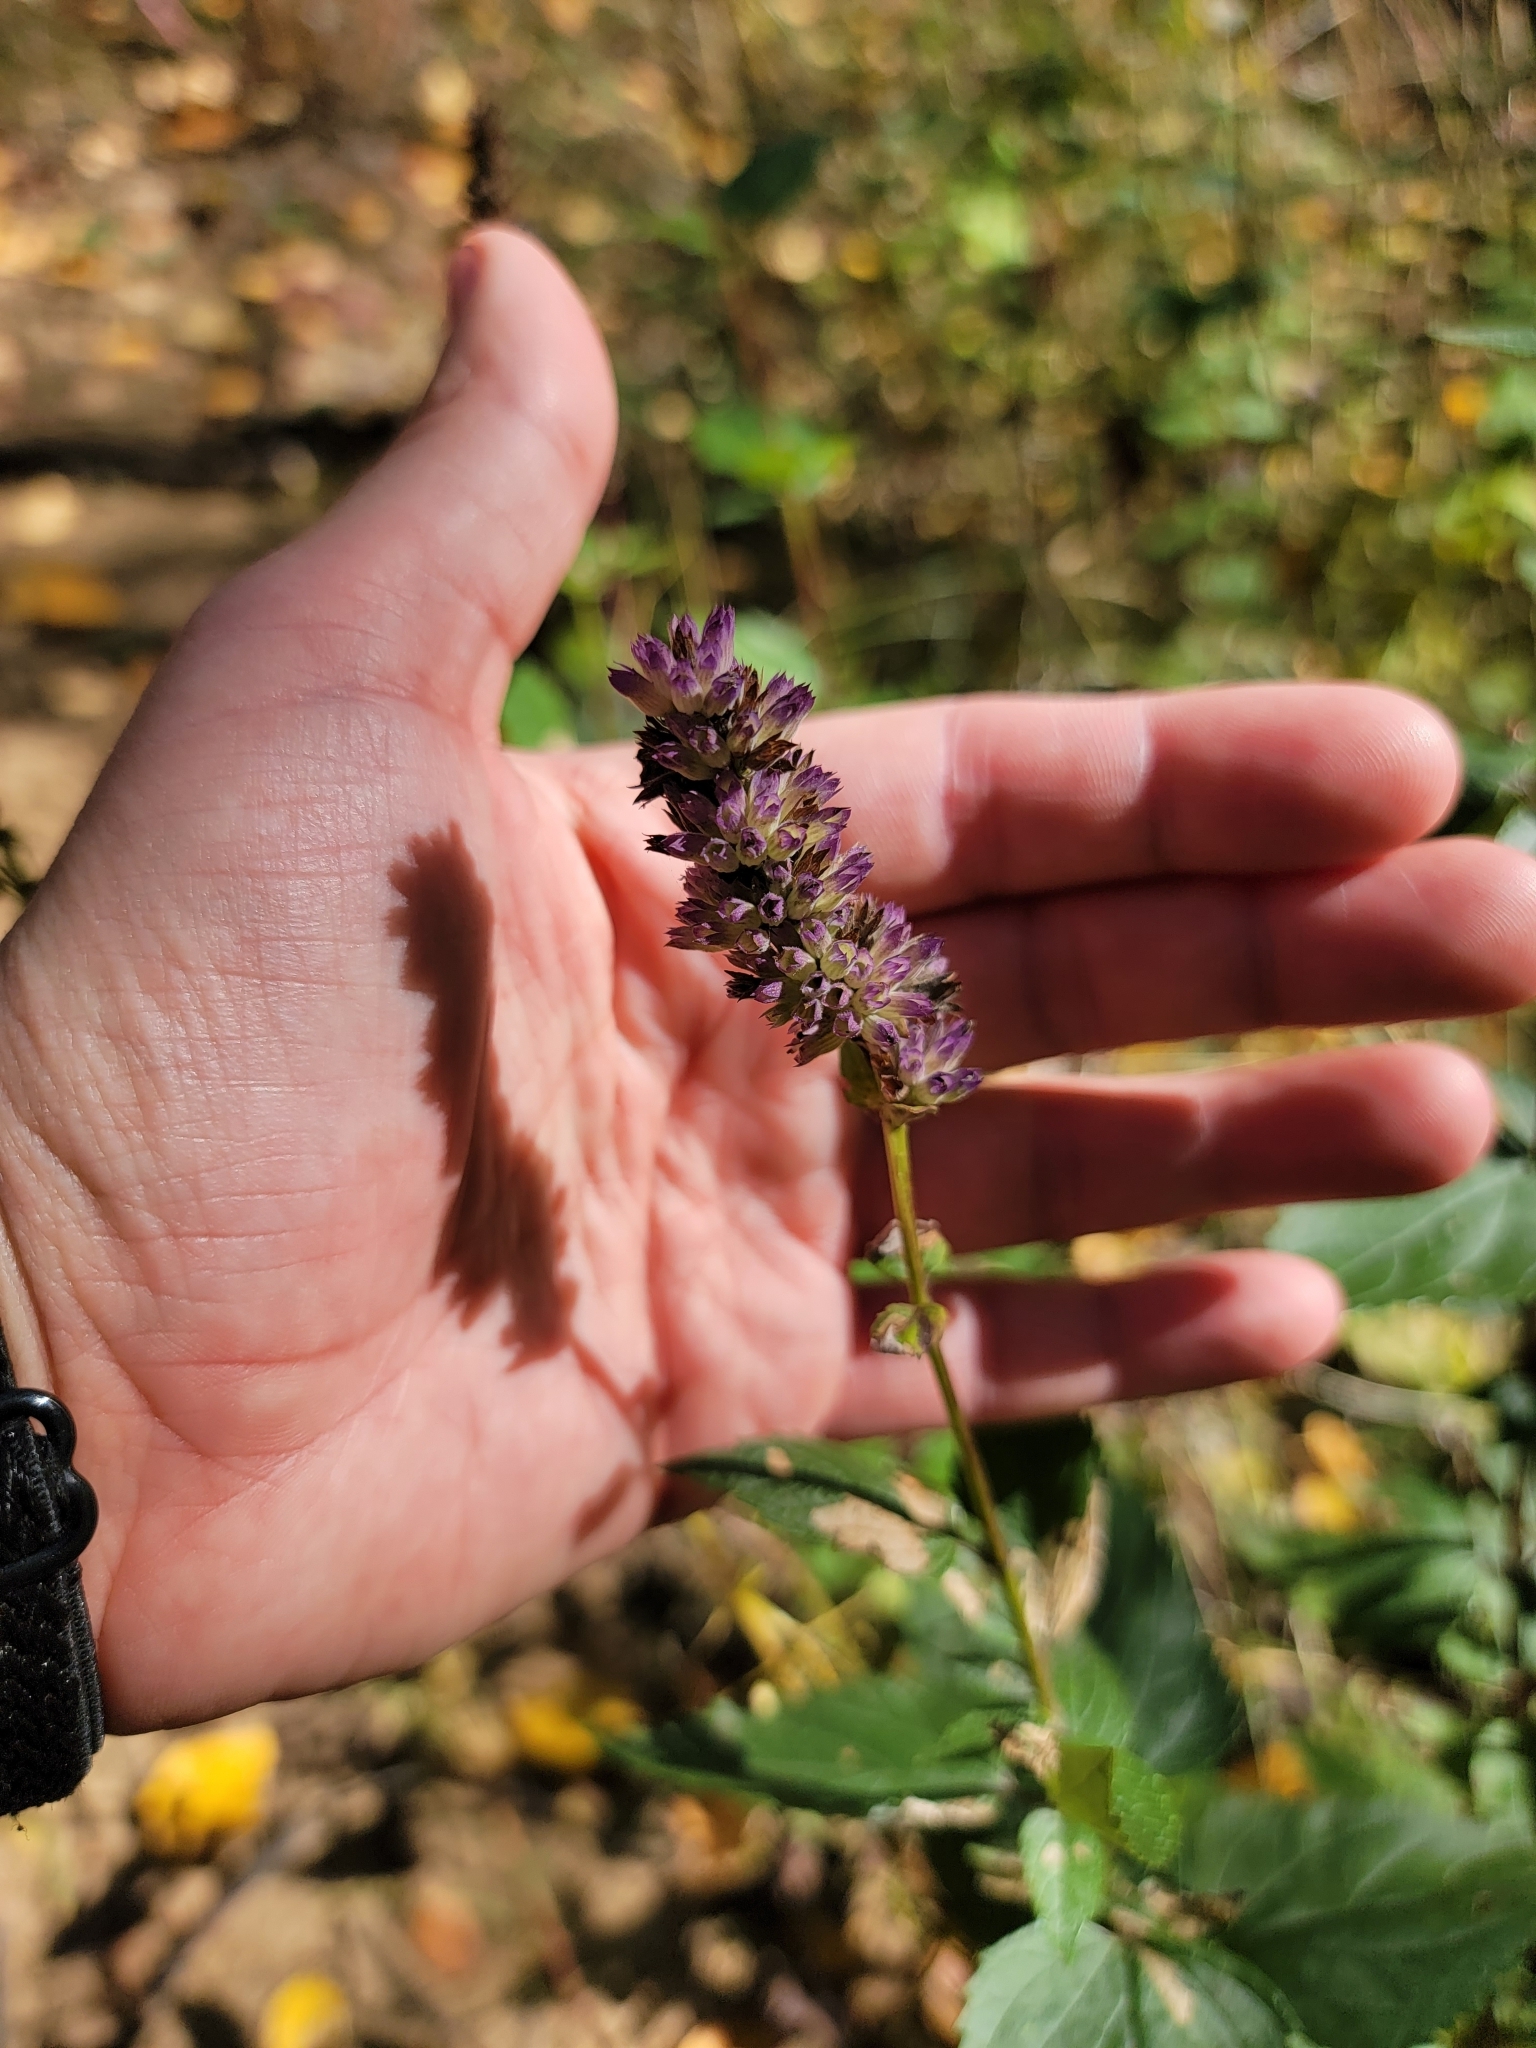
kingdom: Plantae
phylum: Tracheophyta
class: Magnoliopsida
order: Lamiales
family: Lamiaceae
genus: Agastache
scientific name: Agastache foeniculum
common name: Anise hyssop
